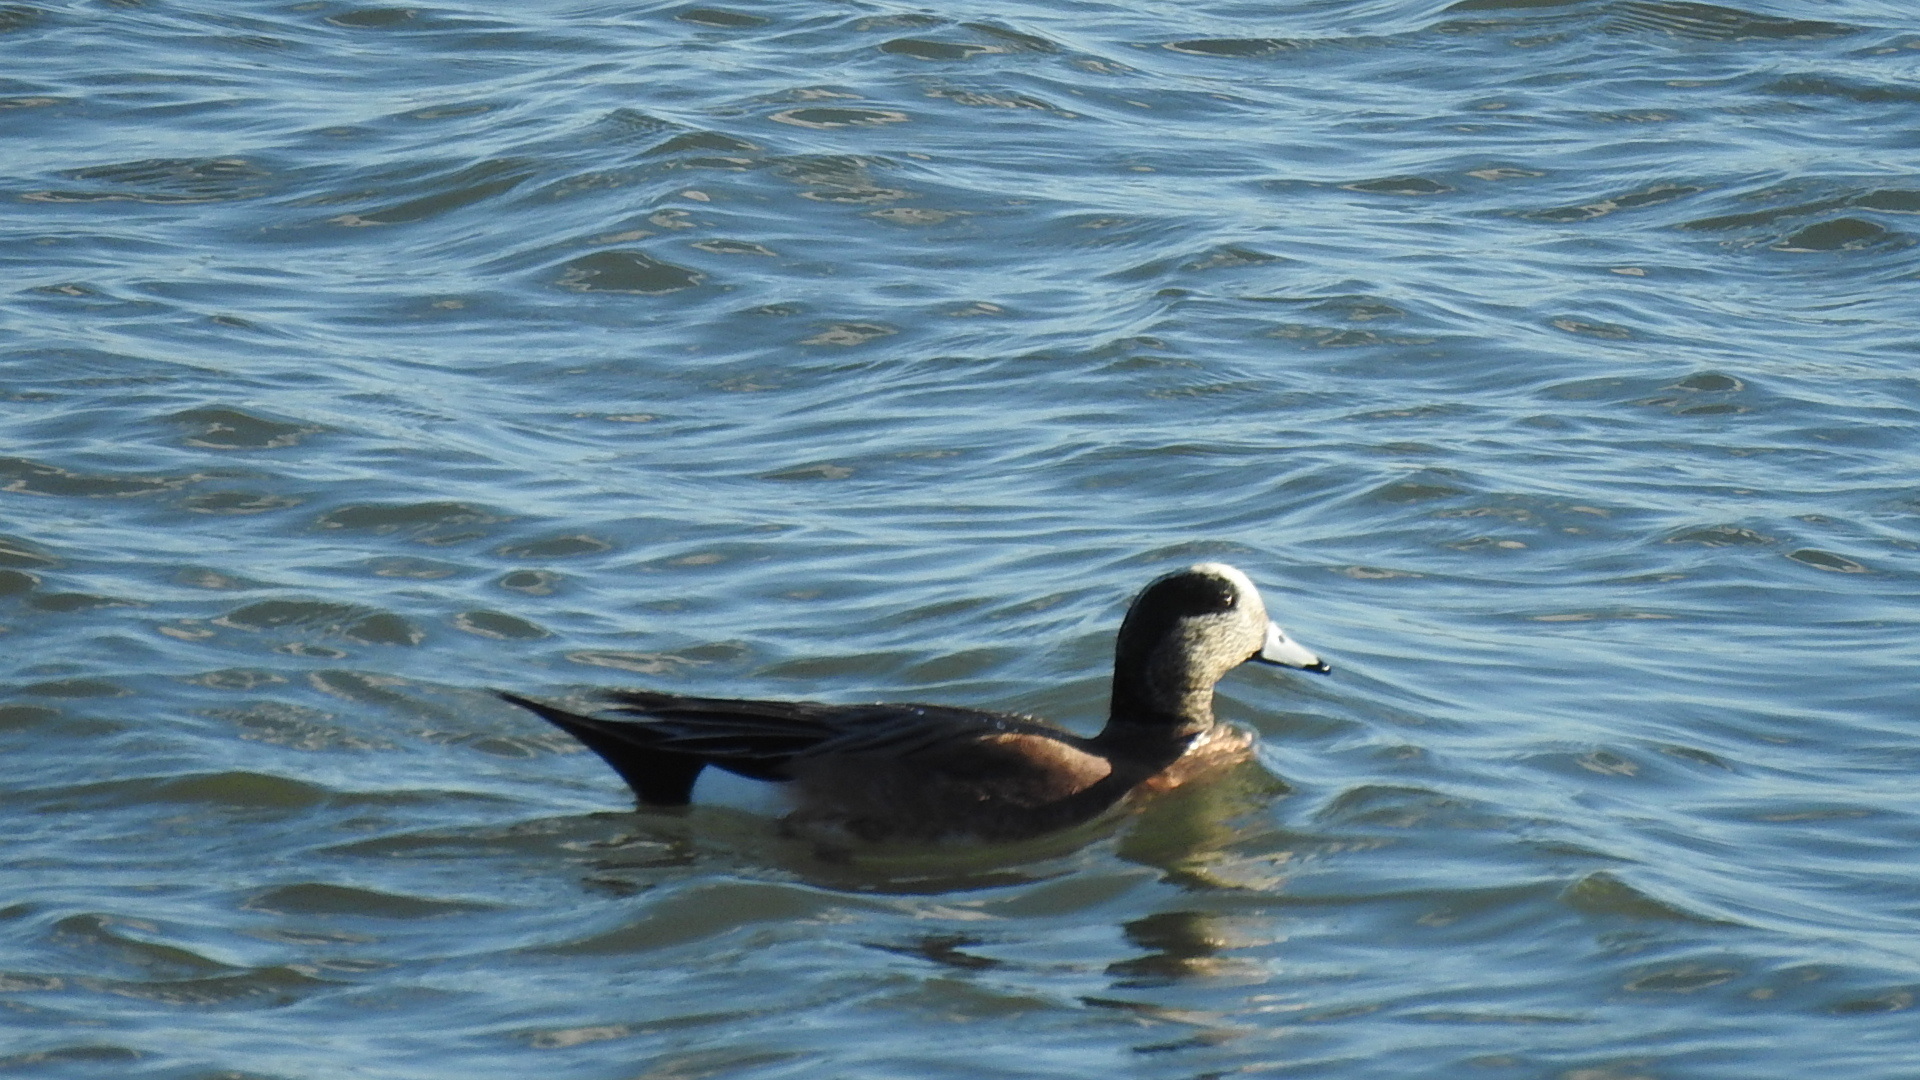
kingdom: Animalia
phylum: Chordata
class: Aves
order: Anseriformes
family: Anatidae
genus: Mareca
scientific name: Mareca americana
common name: American wigeon
